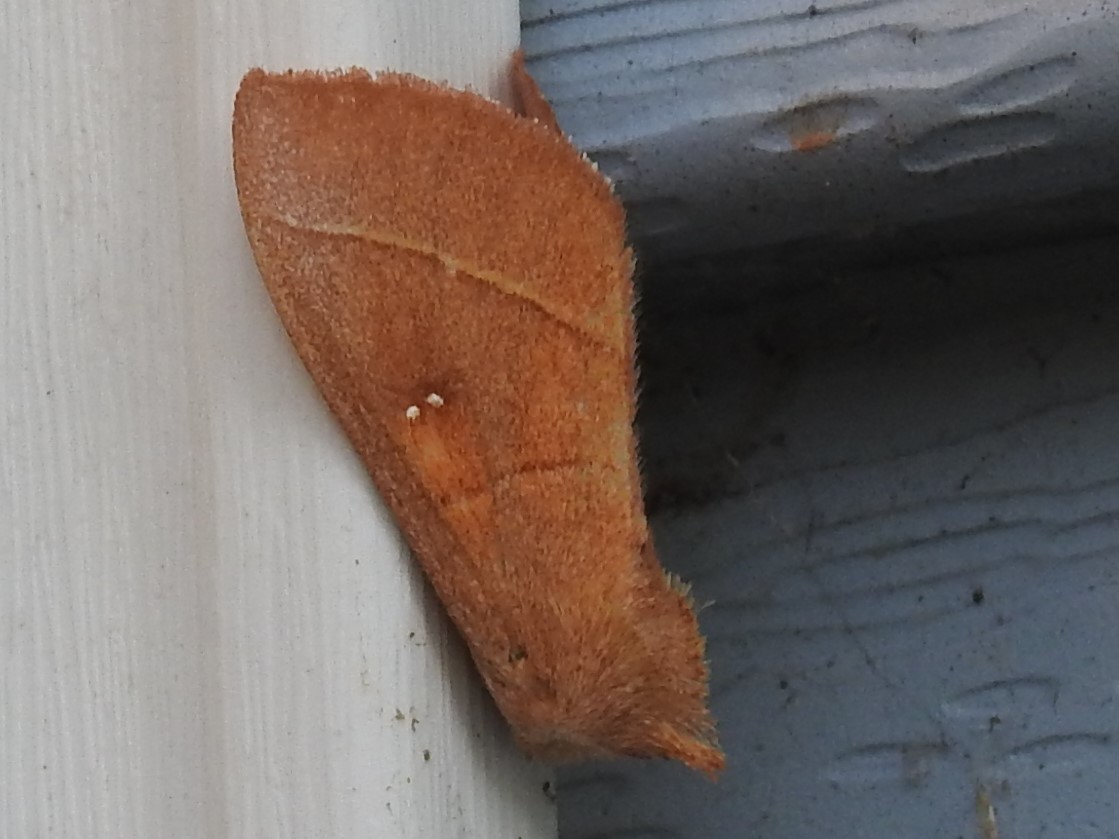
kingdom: Animalia
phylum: Arthropoda
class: Insecta
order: Lepidoptera
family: Notodontidae
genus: Nadata
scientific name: Nadata gibbosa
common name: White-dotted prominent
